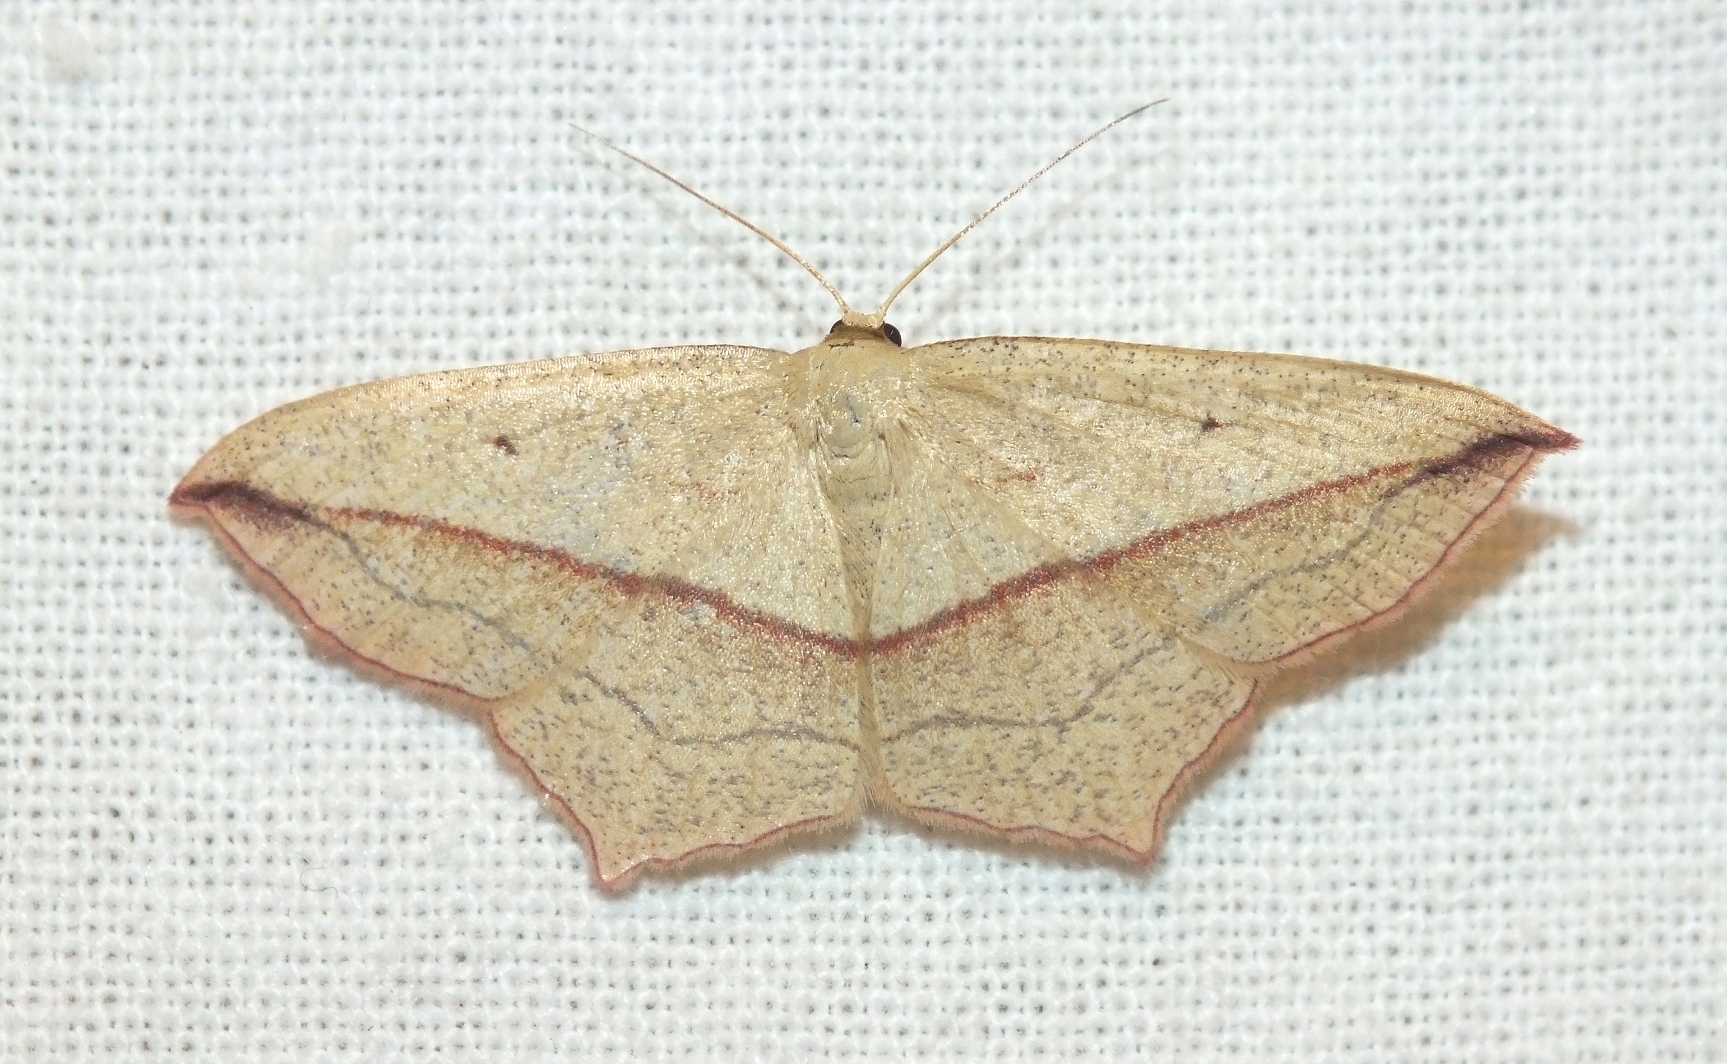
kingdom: Animalia
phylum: Arthropoda
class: Insecta
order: Lepidoptera
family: Geometridae
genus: Timandra
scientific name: Timandra comae
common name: Blood-vein
